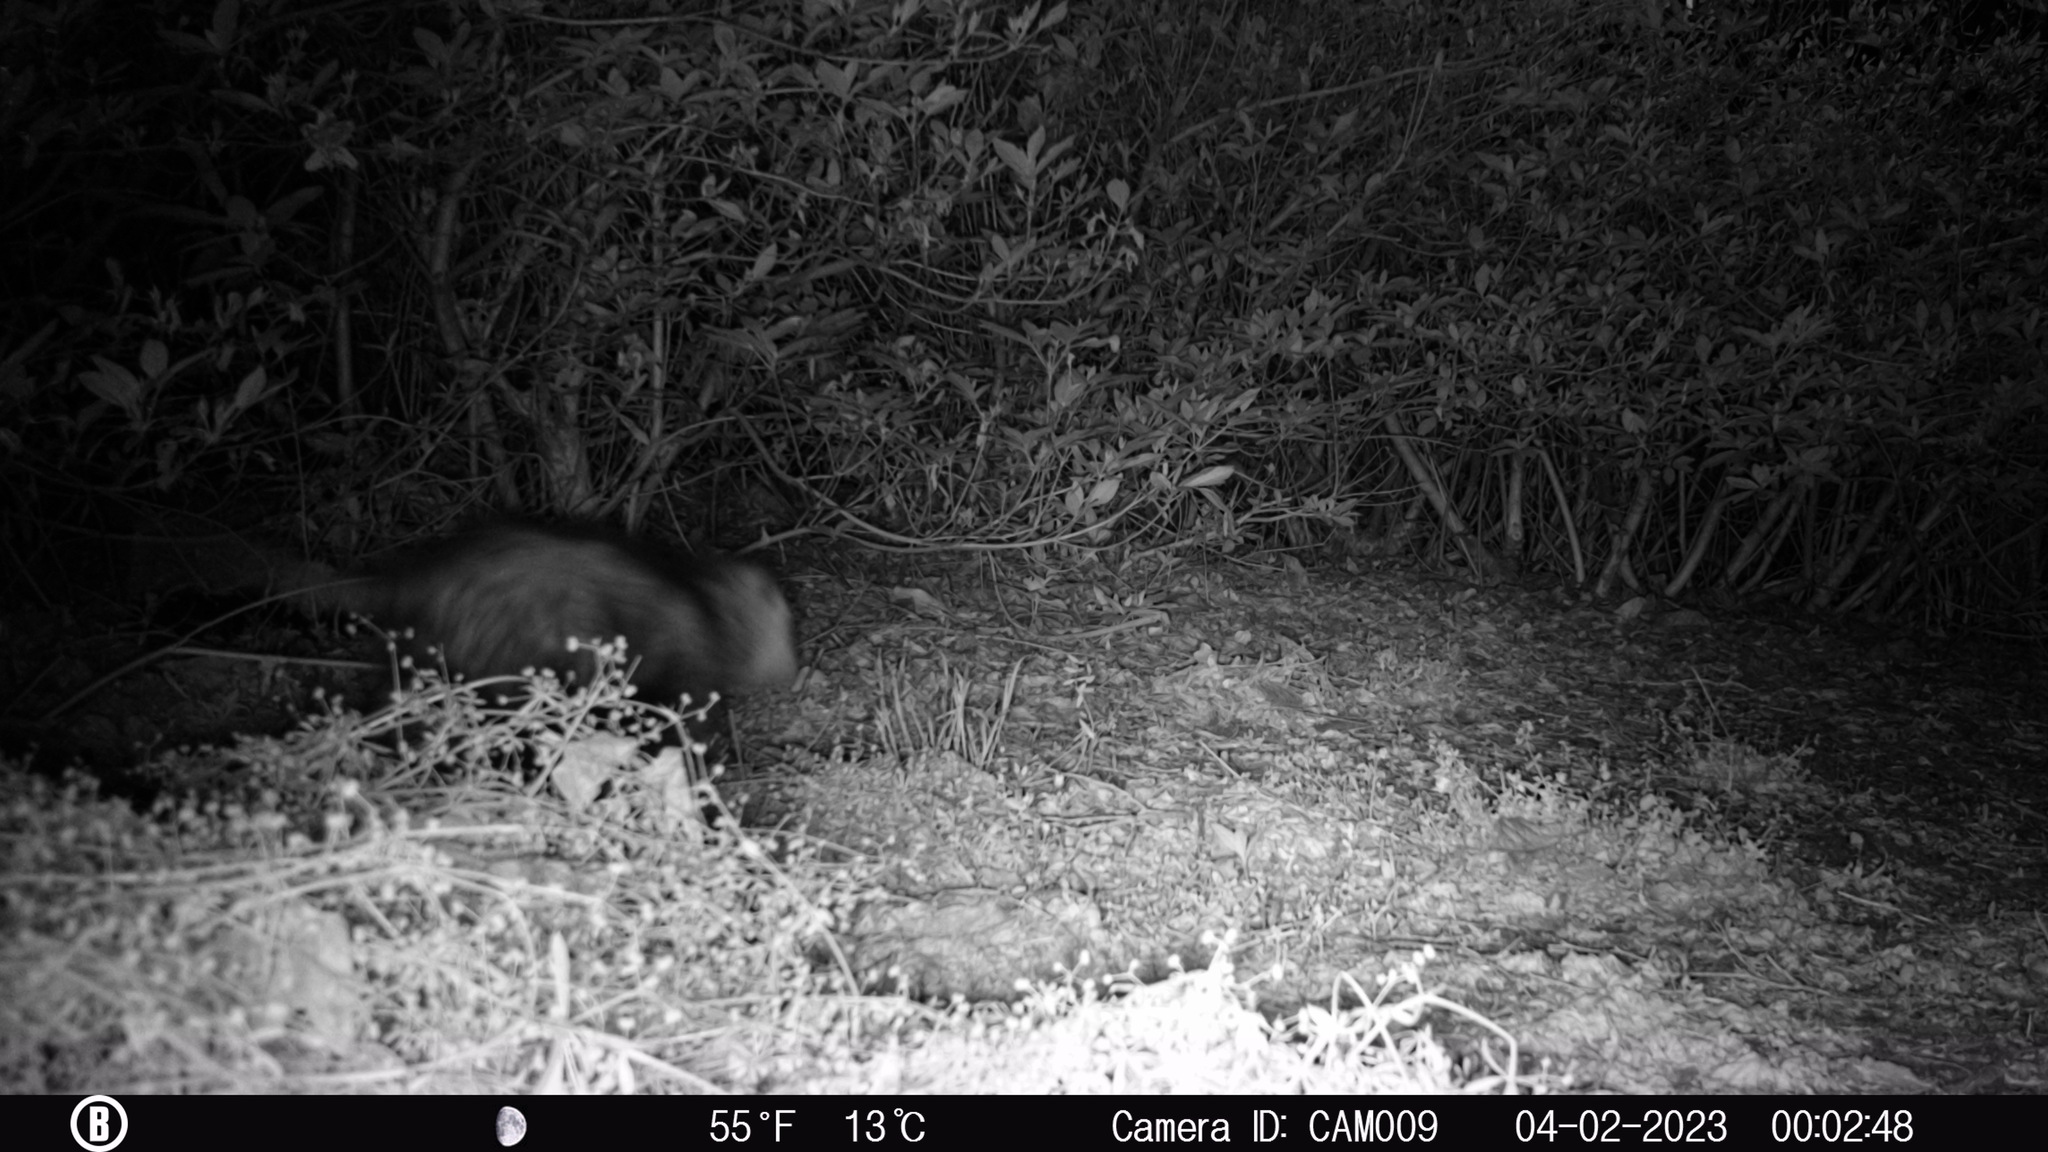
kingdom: Animalia
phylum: Chordata
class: Mammalia
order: Didelphimorphia
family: Didelphidae
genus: Didelphis
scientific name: Didelphis virginiana
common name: Virginia opossum
